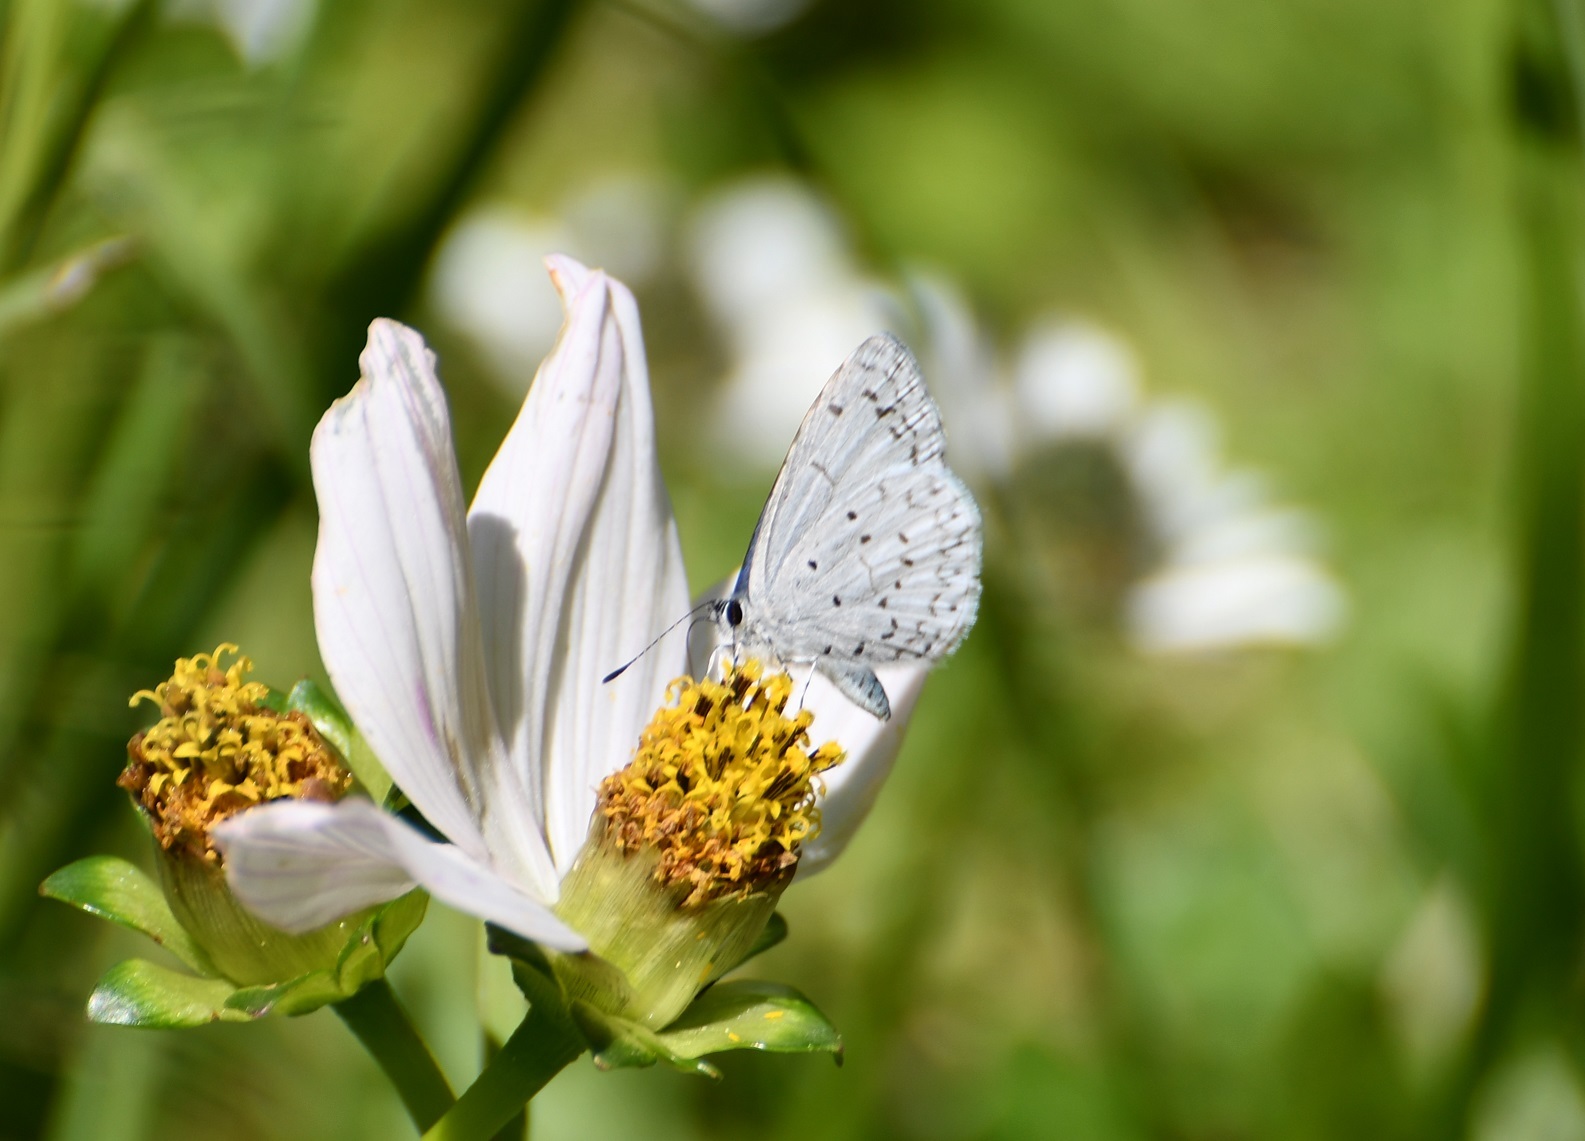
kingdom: Animalia
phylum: Arthropoda
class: Insecta
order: Lepidoptera
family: Lycaenidae
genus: Celastrina
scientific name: Celastrina ladon
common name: Spring azure
